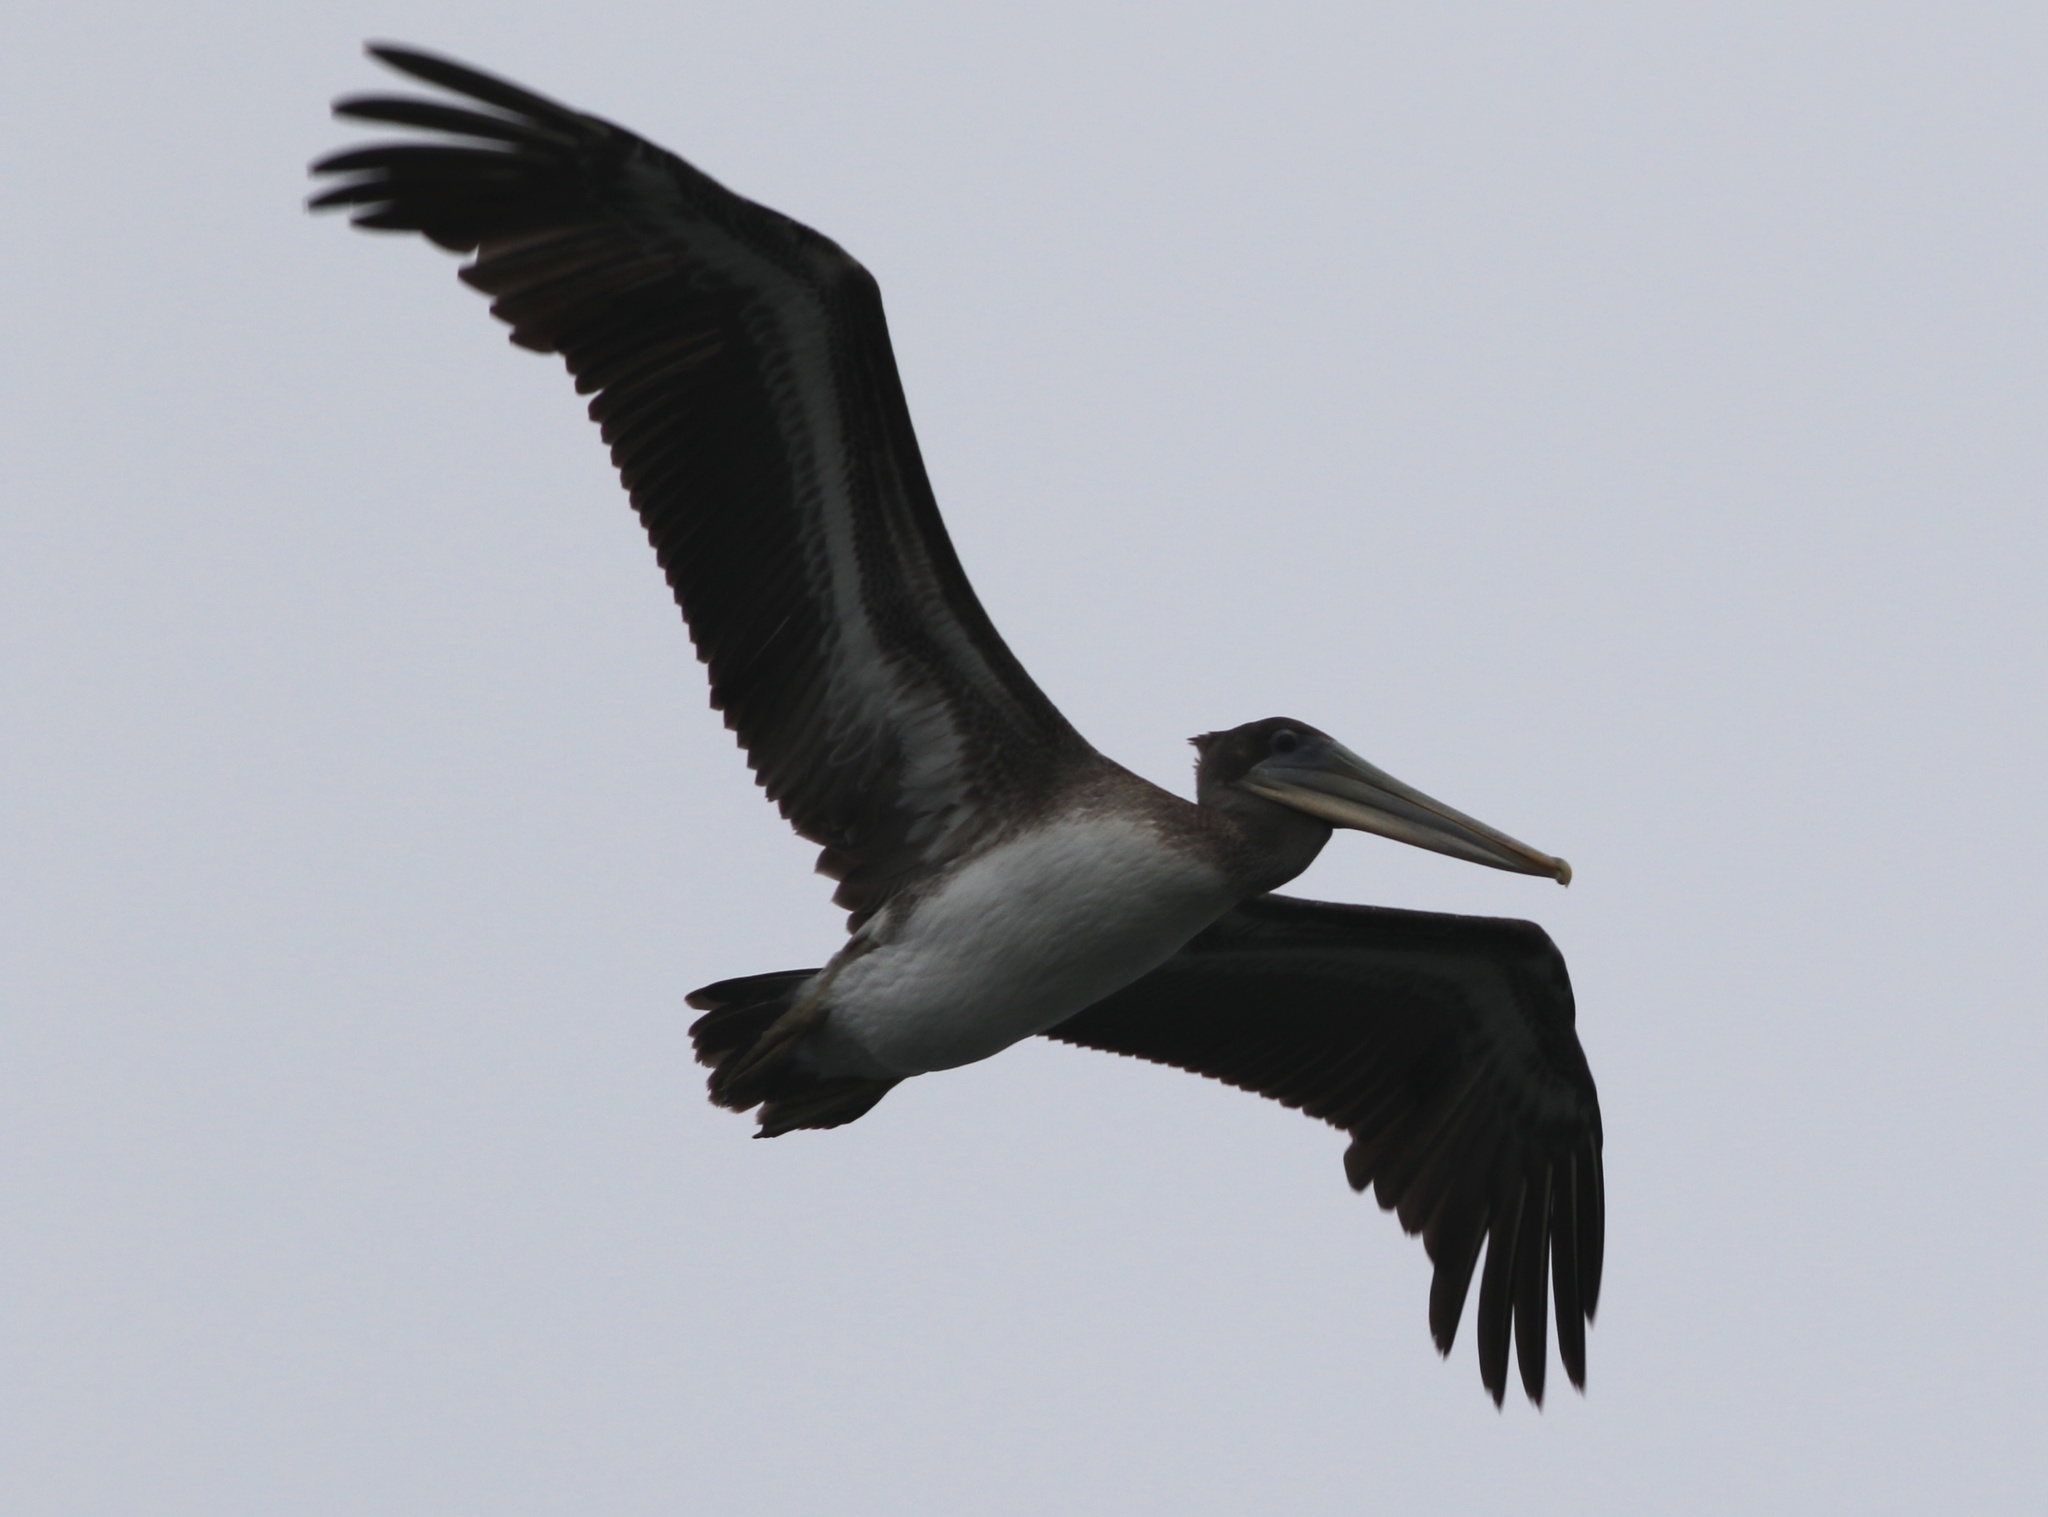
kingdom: Animalia
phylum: Chordata
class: Aves
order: Pelecaniformes
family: Pelecanidae
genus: Pelecanus
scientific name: Pelecanus occidentalis
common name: Brown pelican
